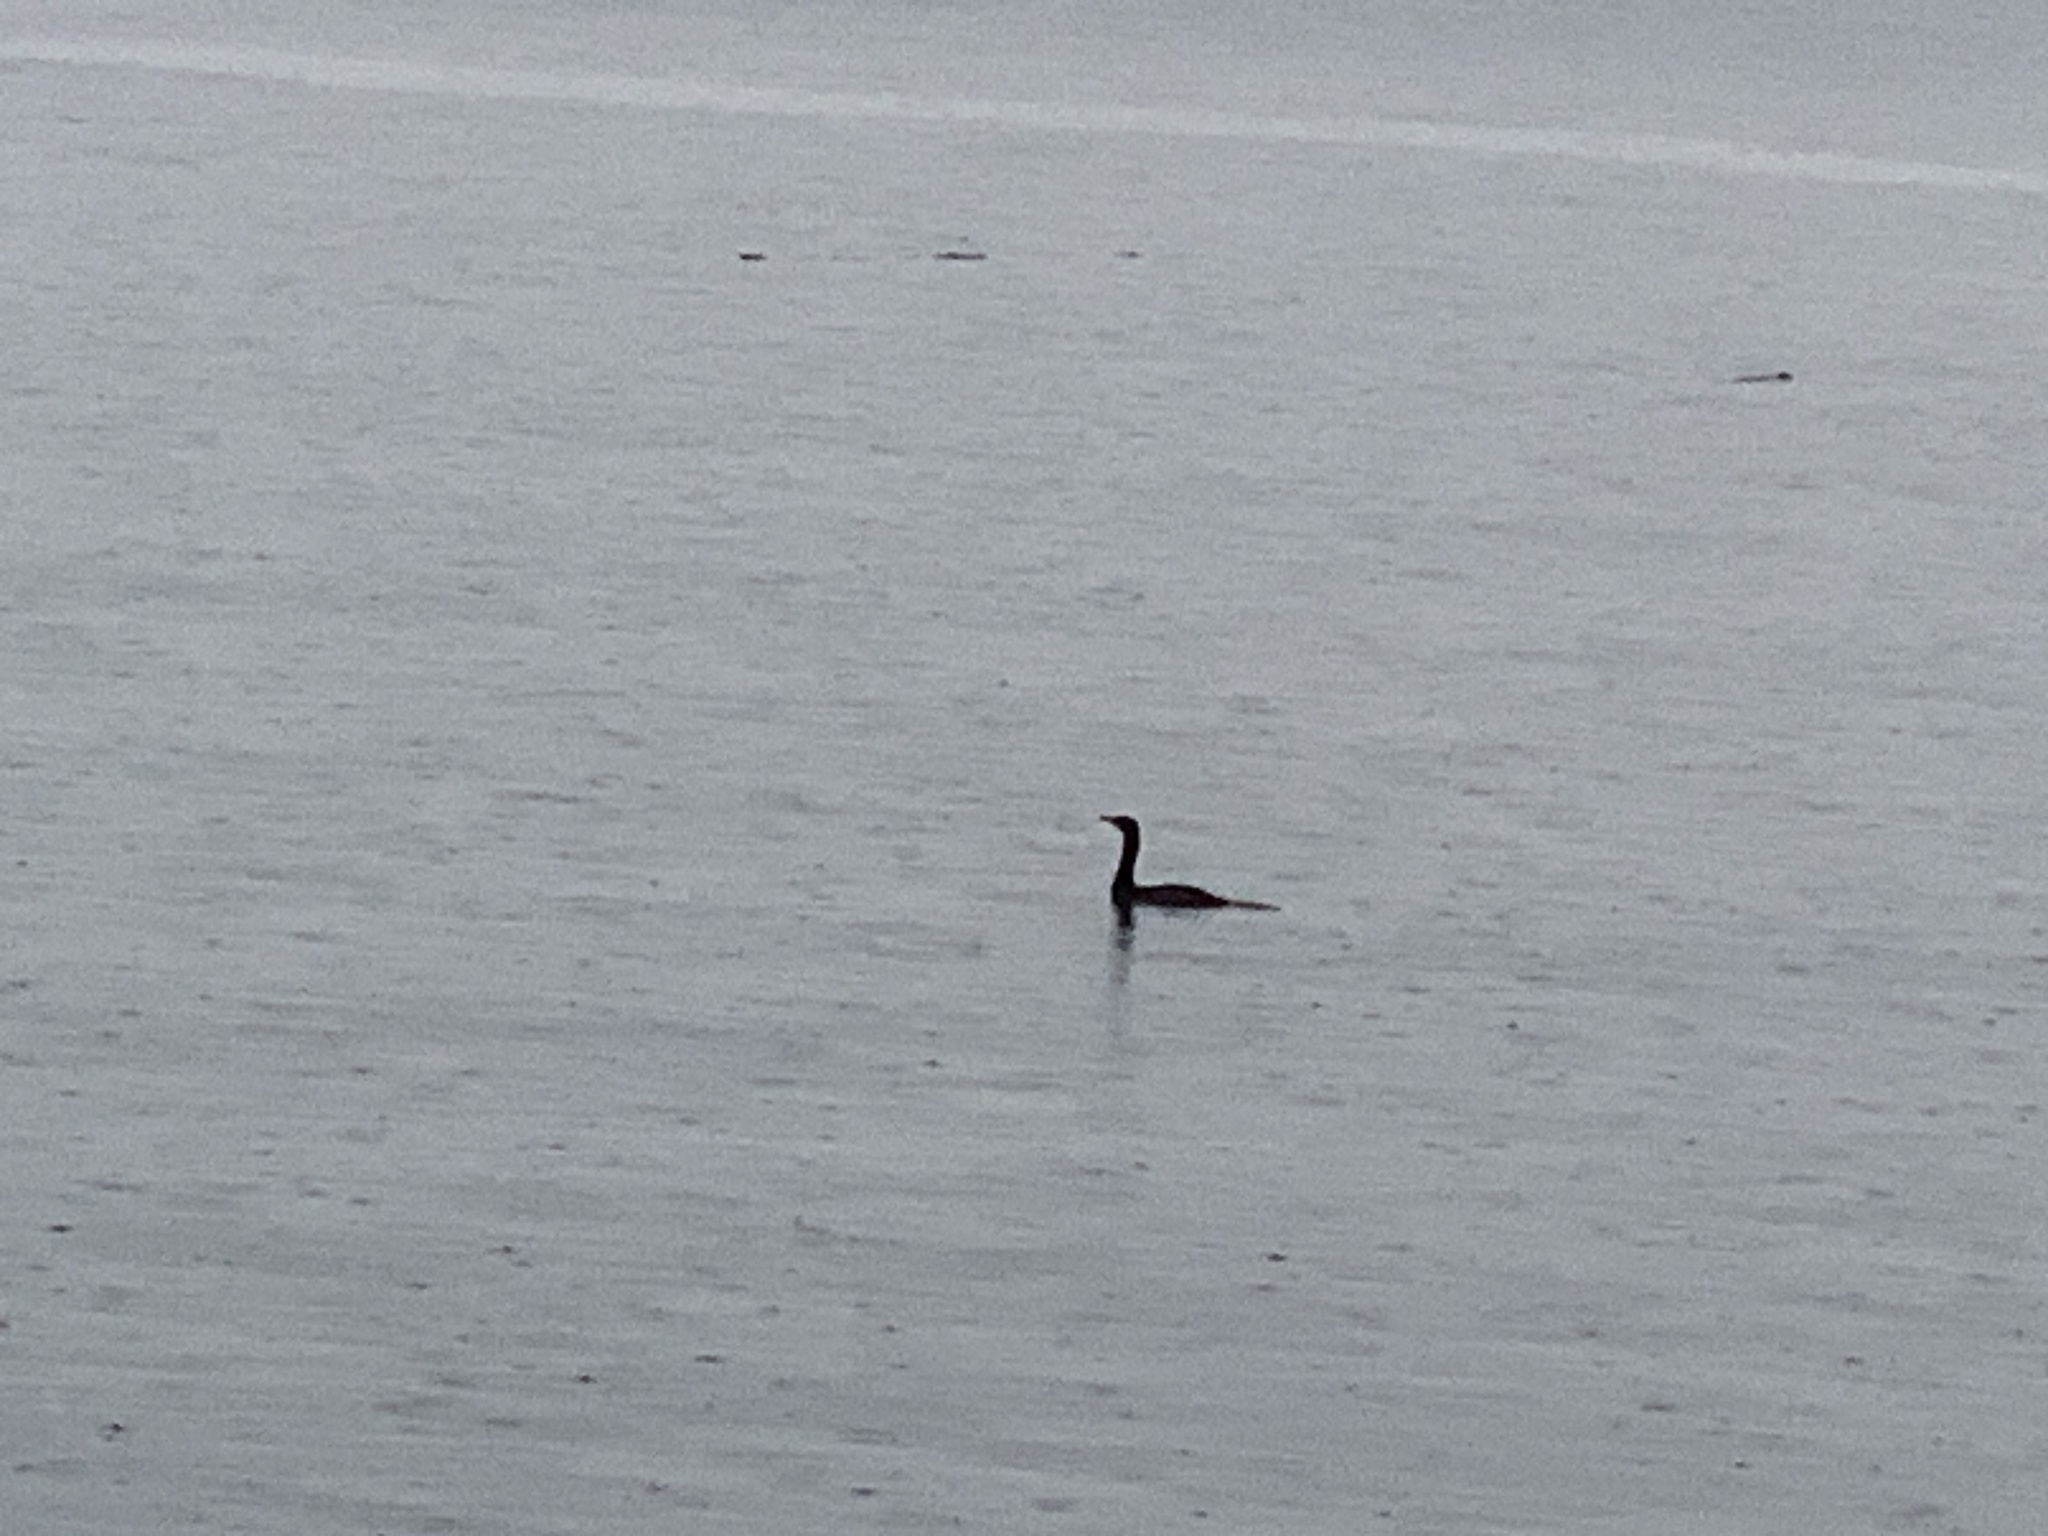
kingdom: Animalia
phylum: Chordata
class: Aves
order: Suliformes
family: Phalacrocoracidae
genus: Phalacrocorax
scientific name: Phalacrocorax pelagicus
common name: Pelagic cormorant
